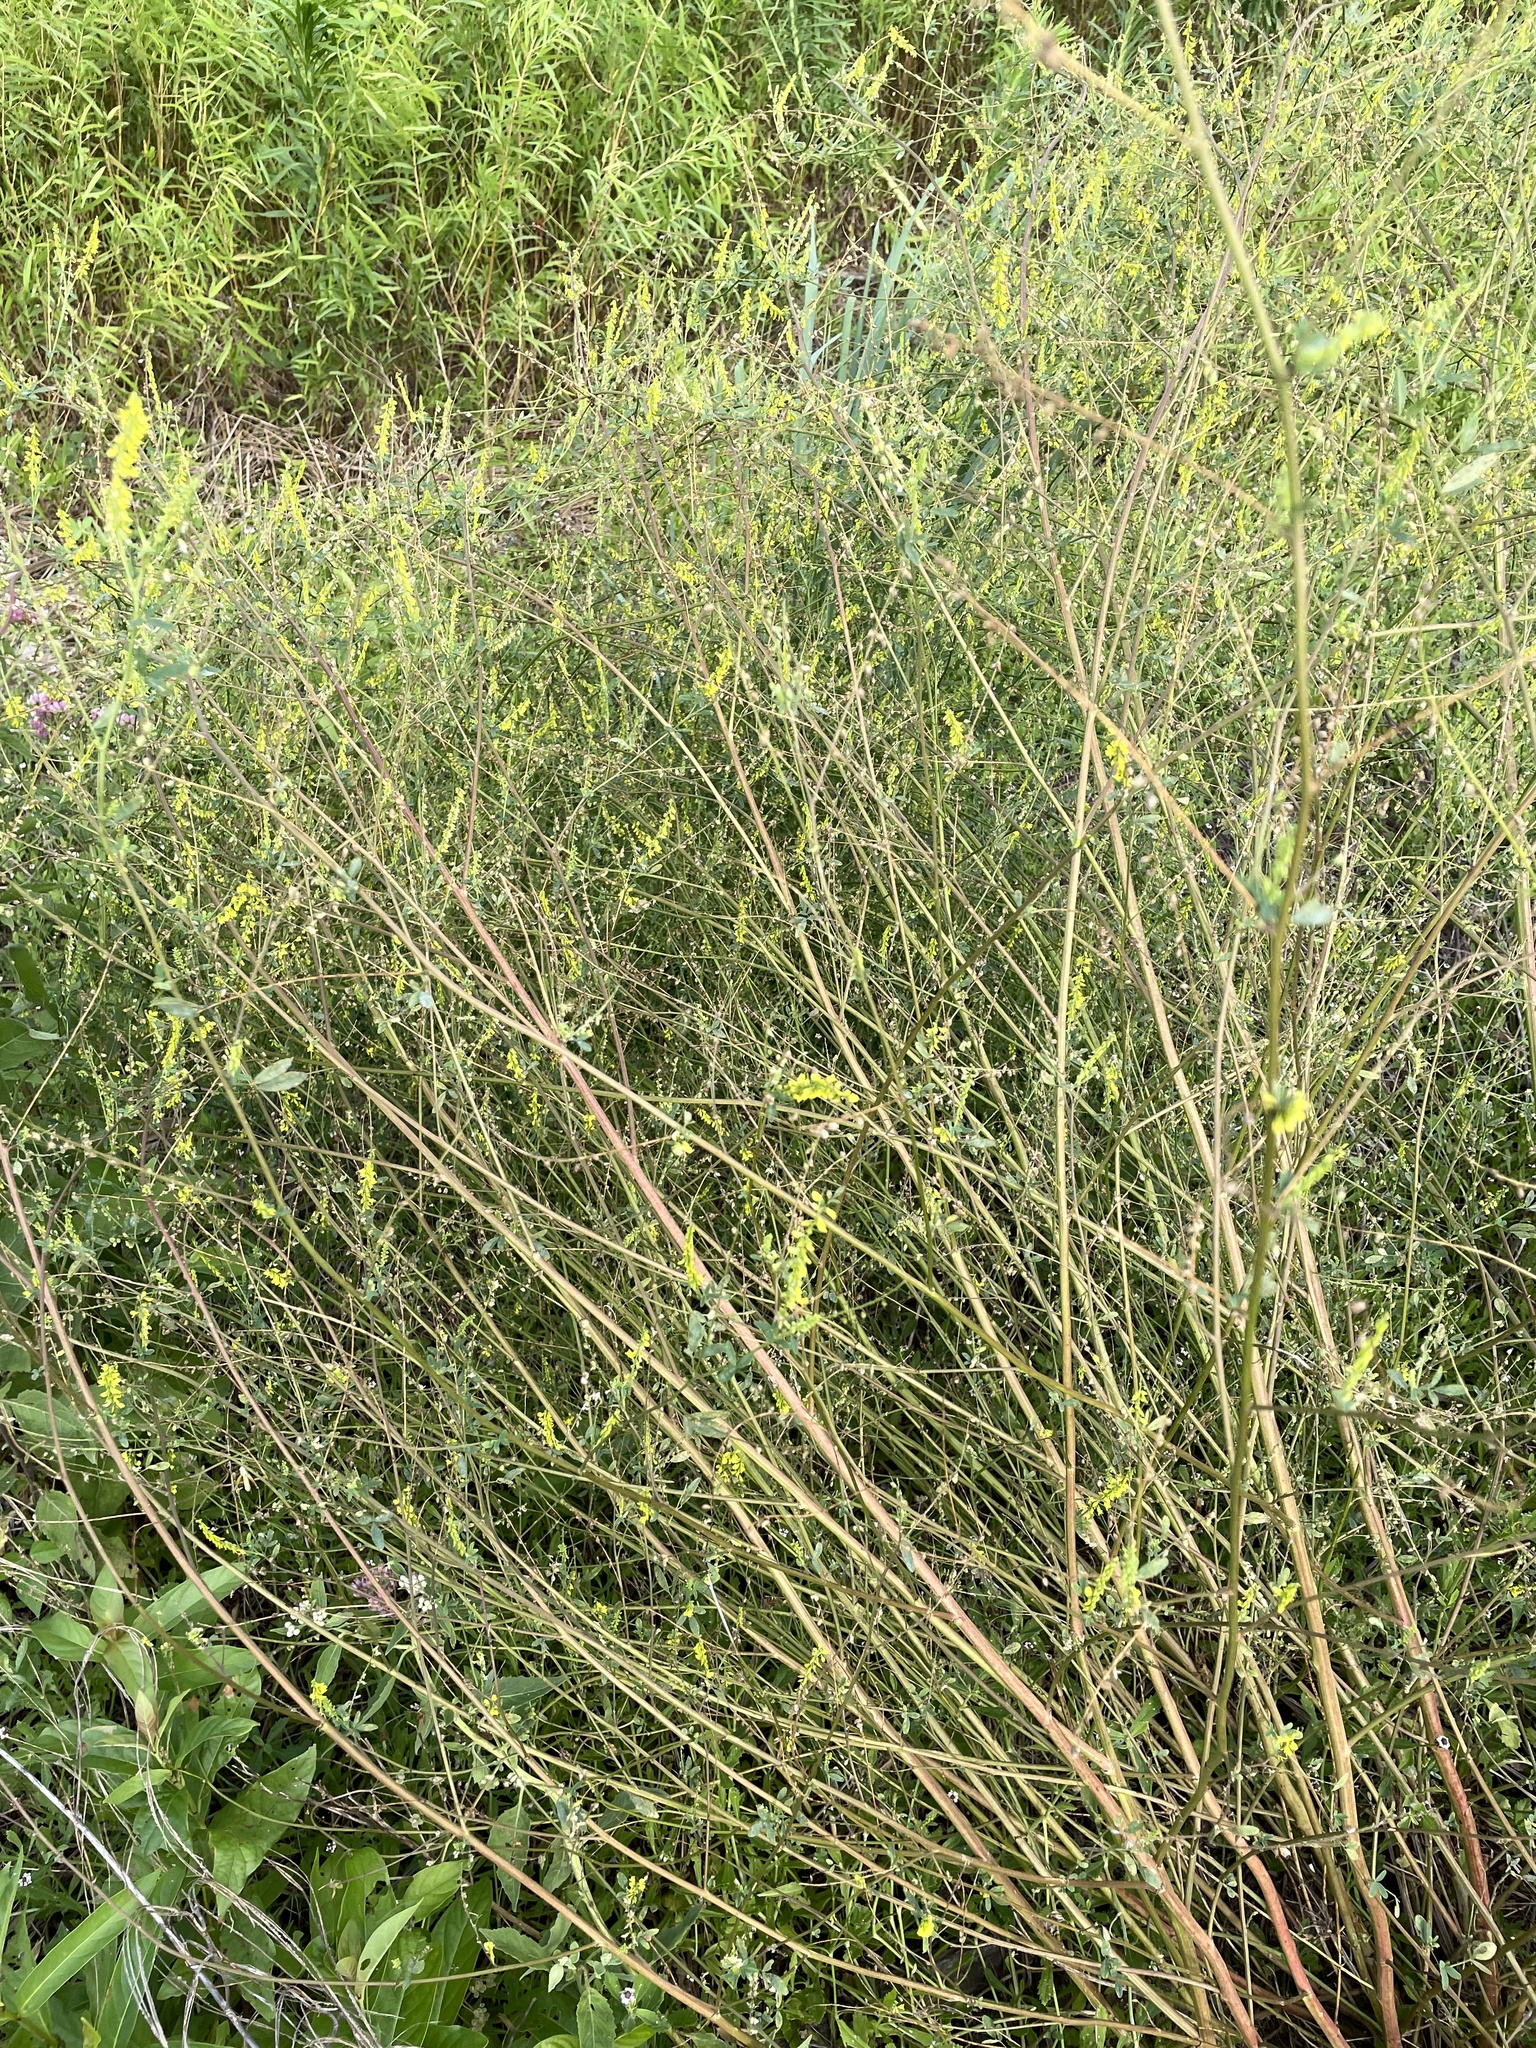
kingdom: Plantae
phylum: Tracheophyta
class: Magnoliopsida
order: Fabales
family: Fabaceae
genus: Melilotus
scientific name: Melilotus officinalis
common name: Sweetclover
